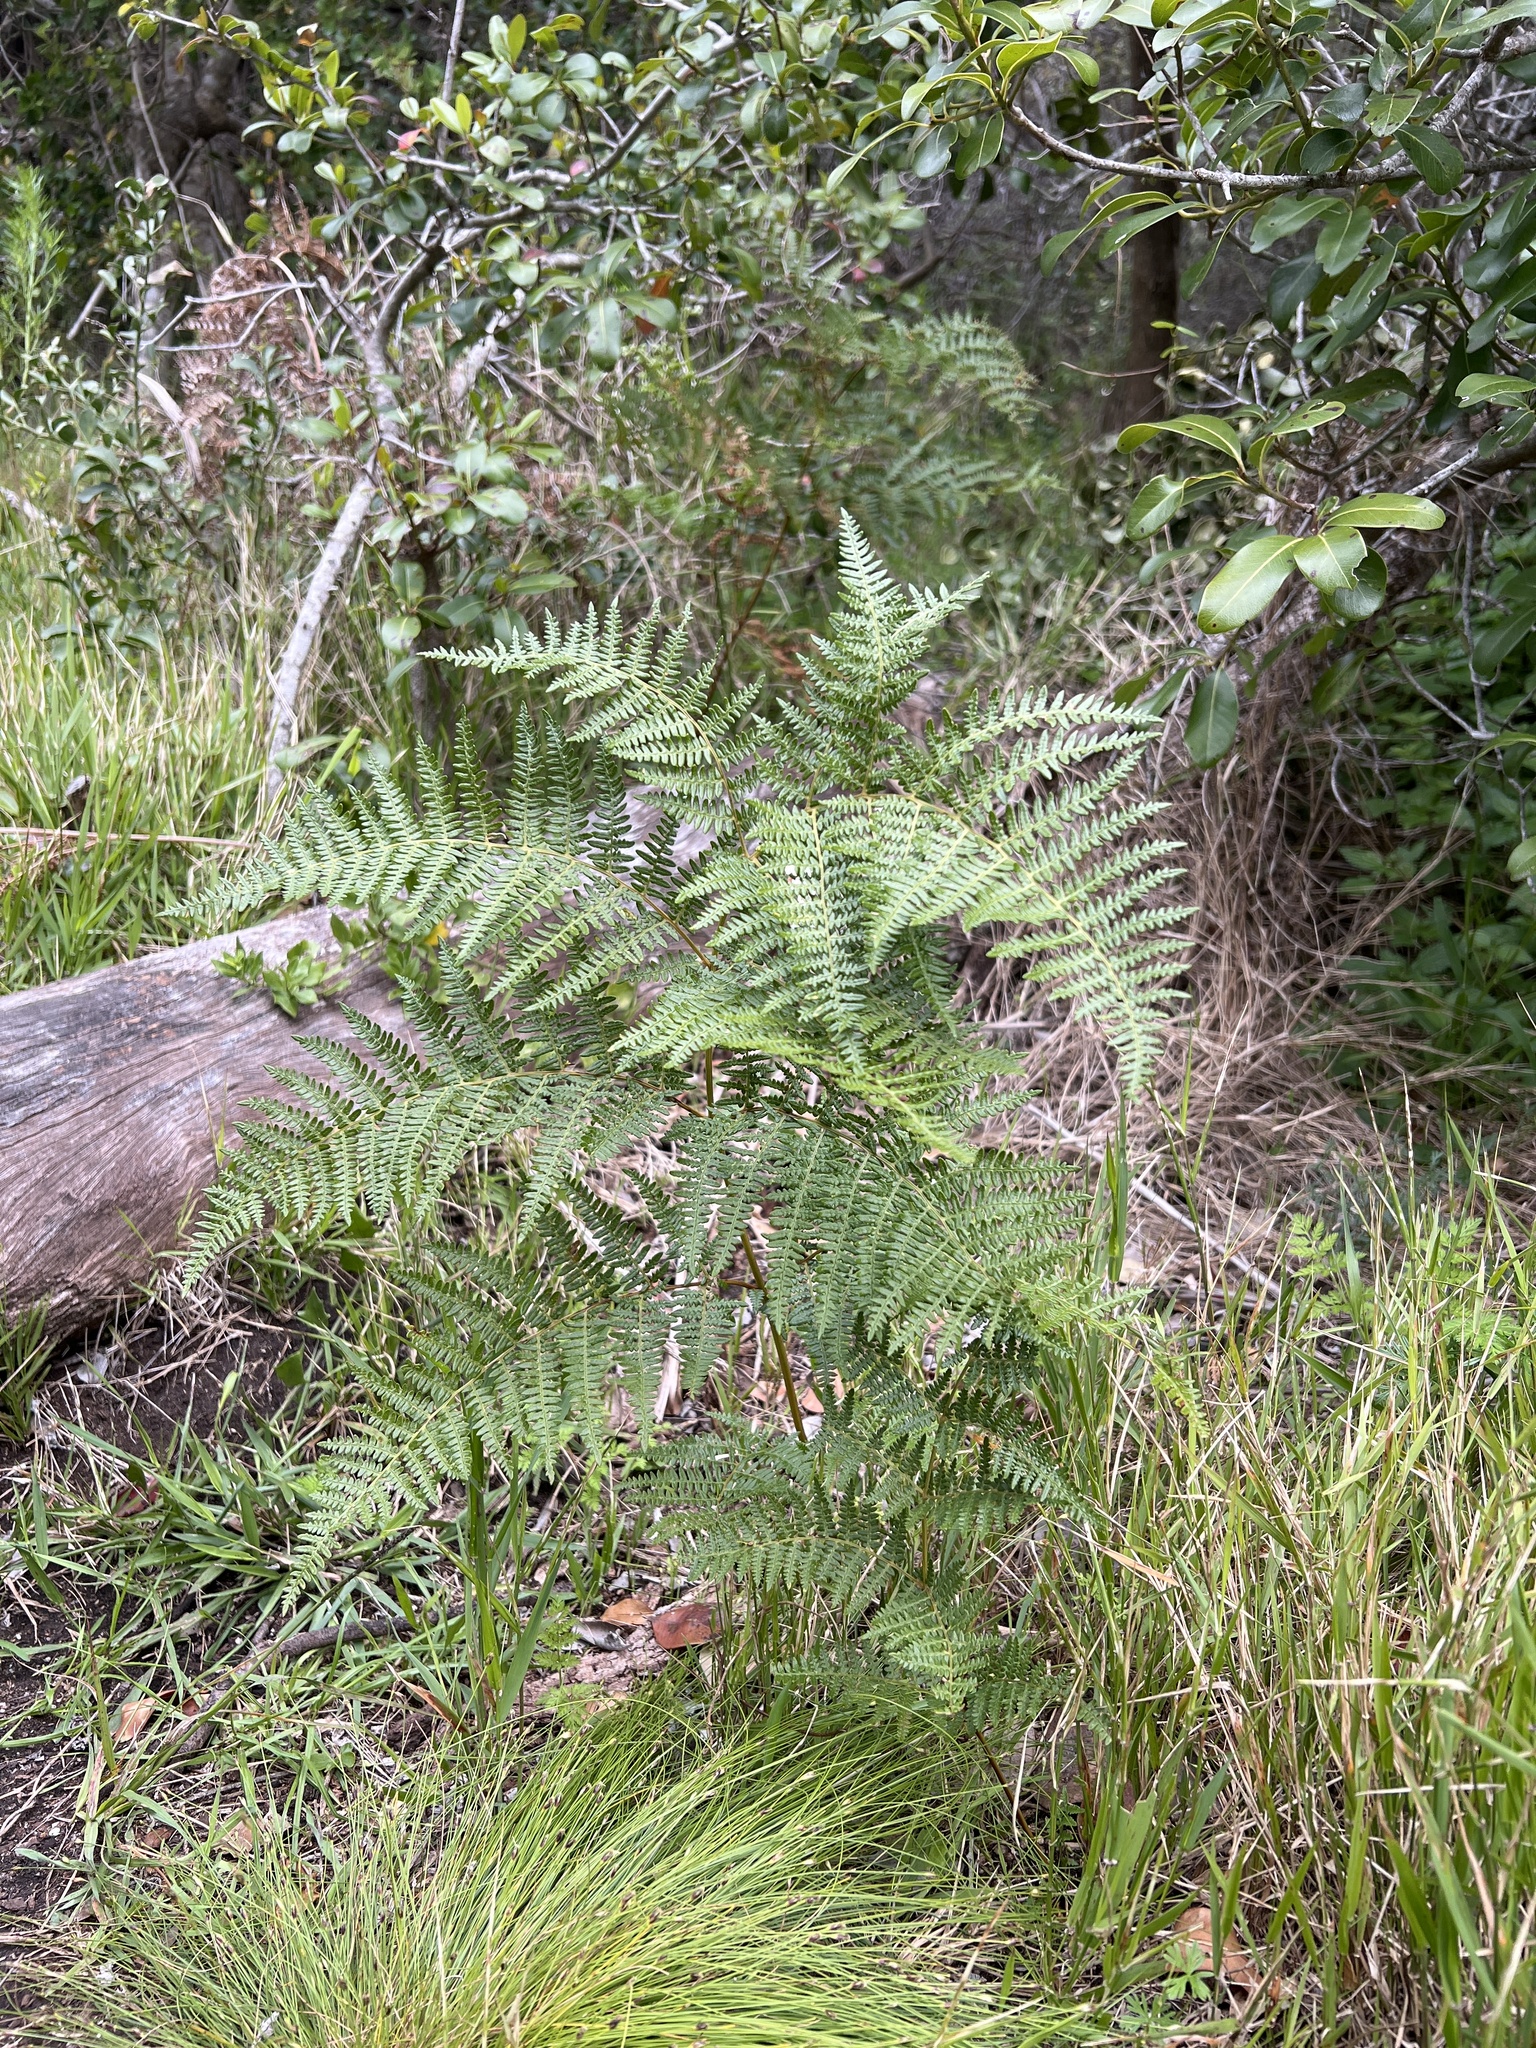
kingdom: Plantae
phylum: Tracheophyta
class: Polypodiopsida
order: Polypodiales
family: Dennstaedtiaceae
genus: Pteridium
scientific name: Pteridium aquilinum
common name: Bracken
